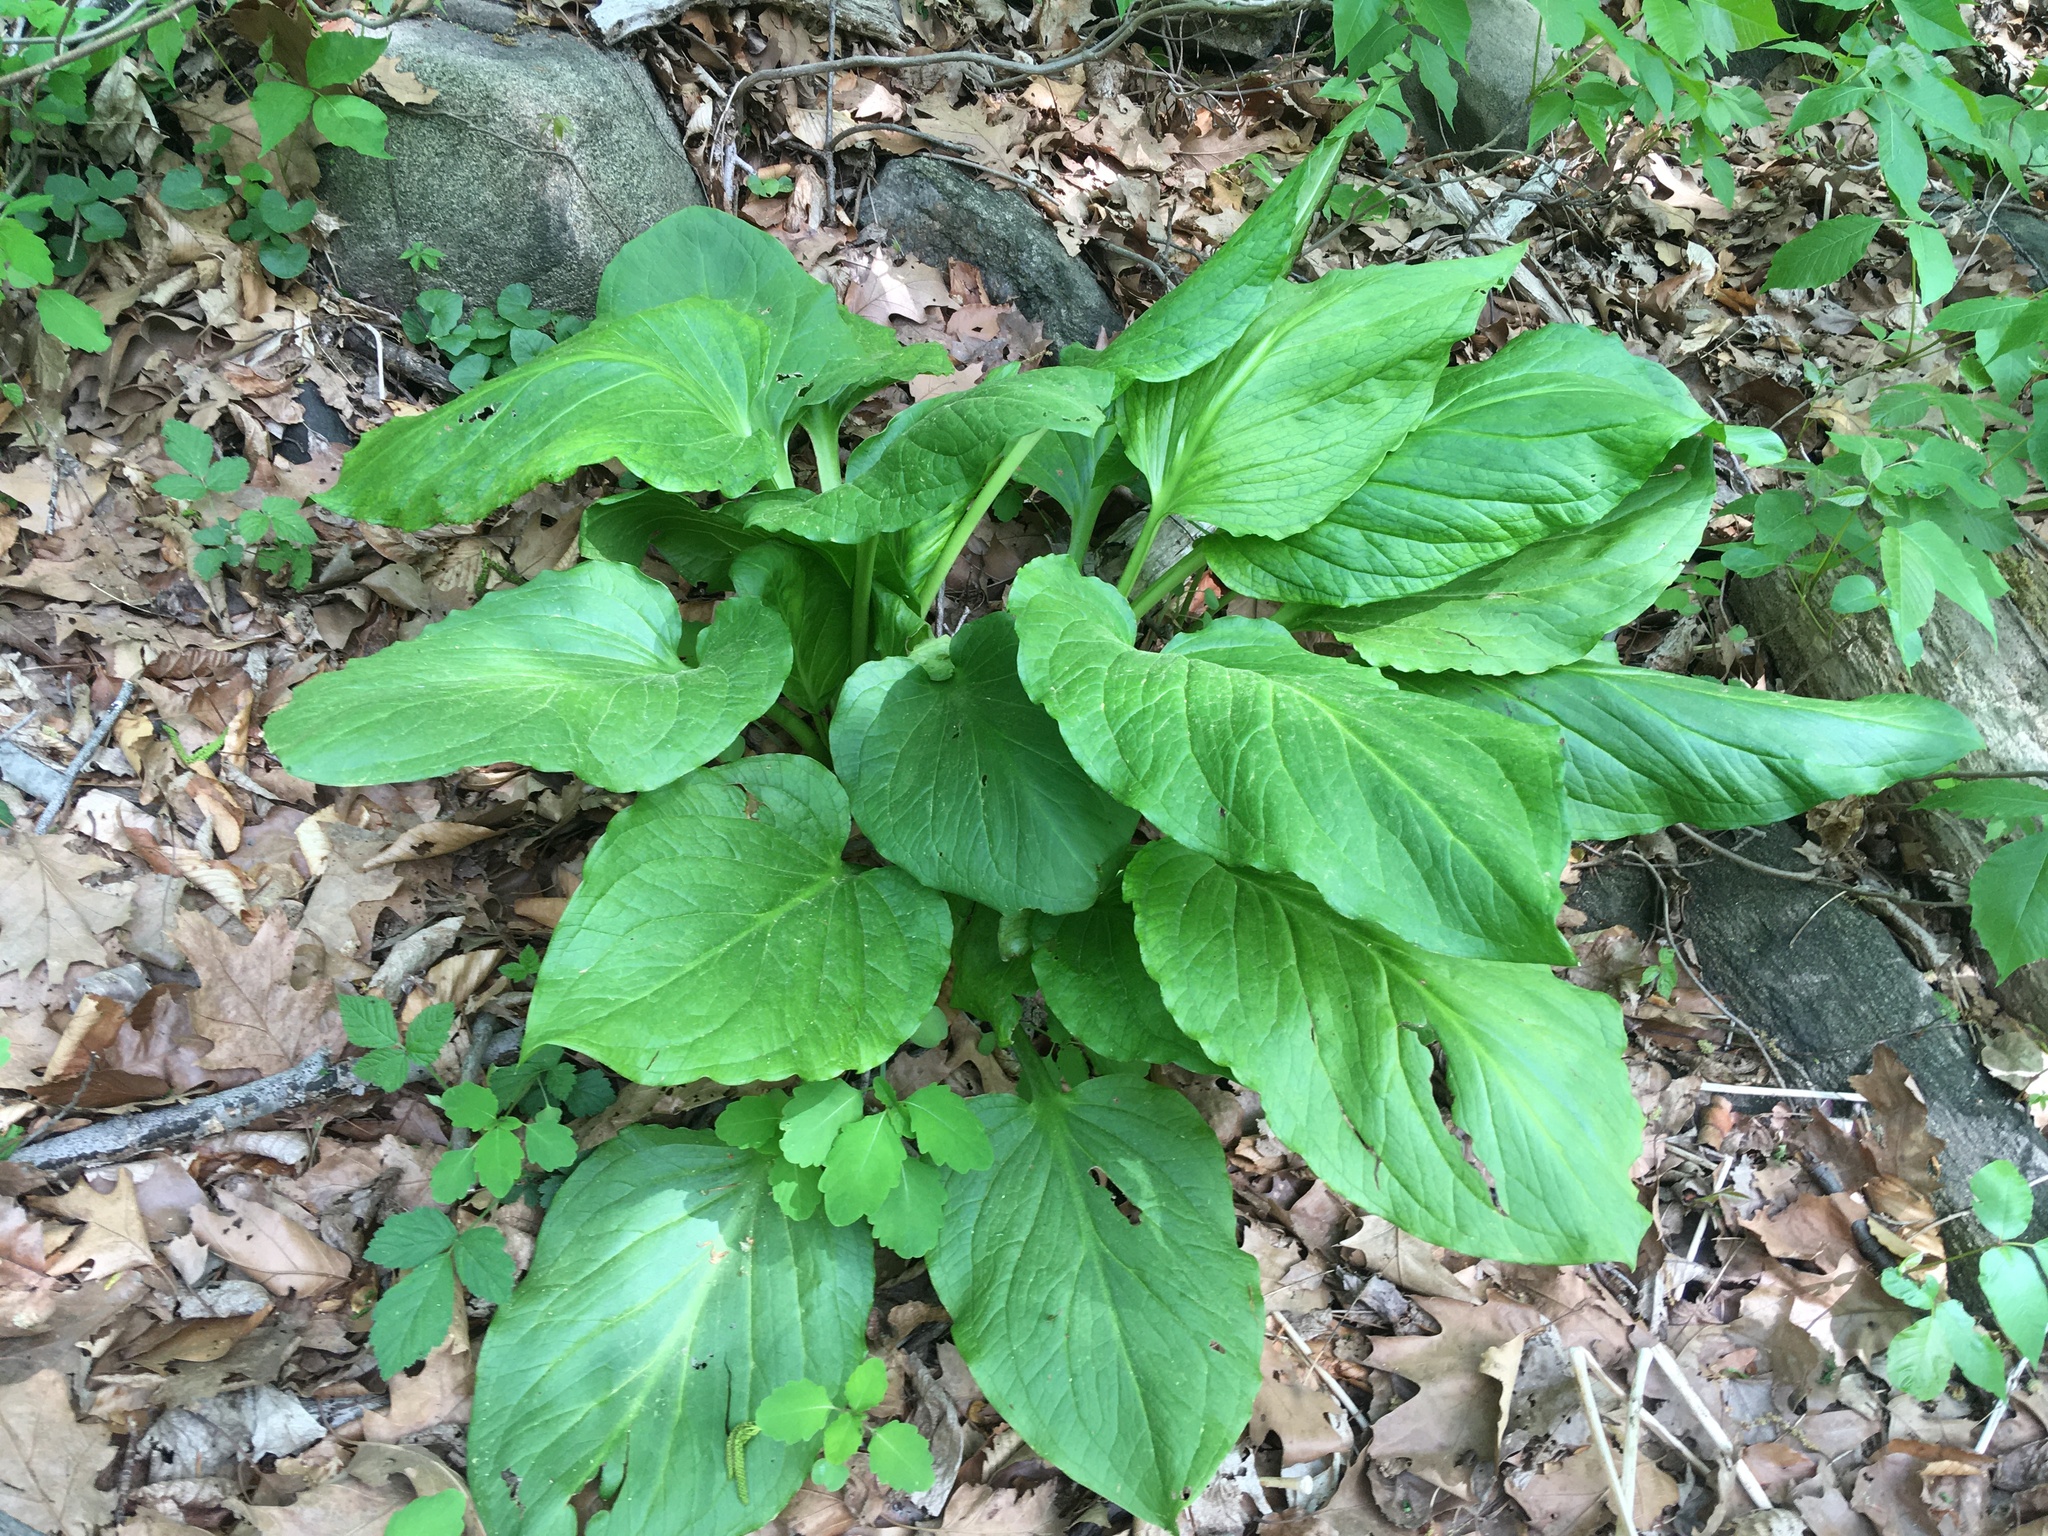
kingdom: Plantae
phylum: Tracheophyta
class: Liliopsida
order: Alismatales
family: Araceae
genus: Symplocarpus
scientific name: Symplocarpus foetidus
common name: Eastern skunk cabbage
